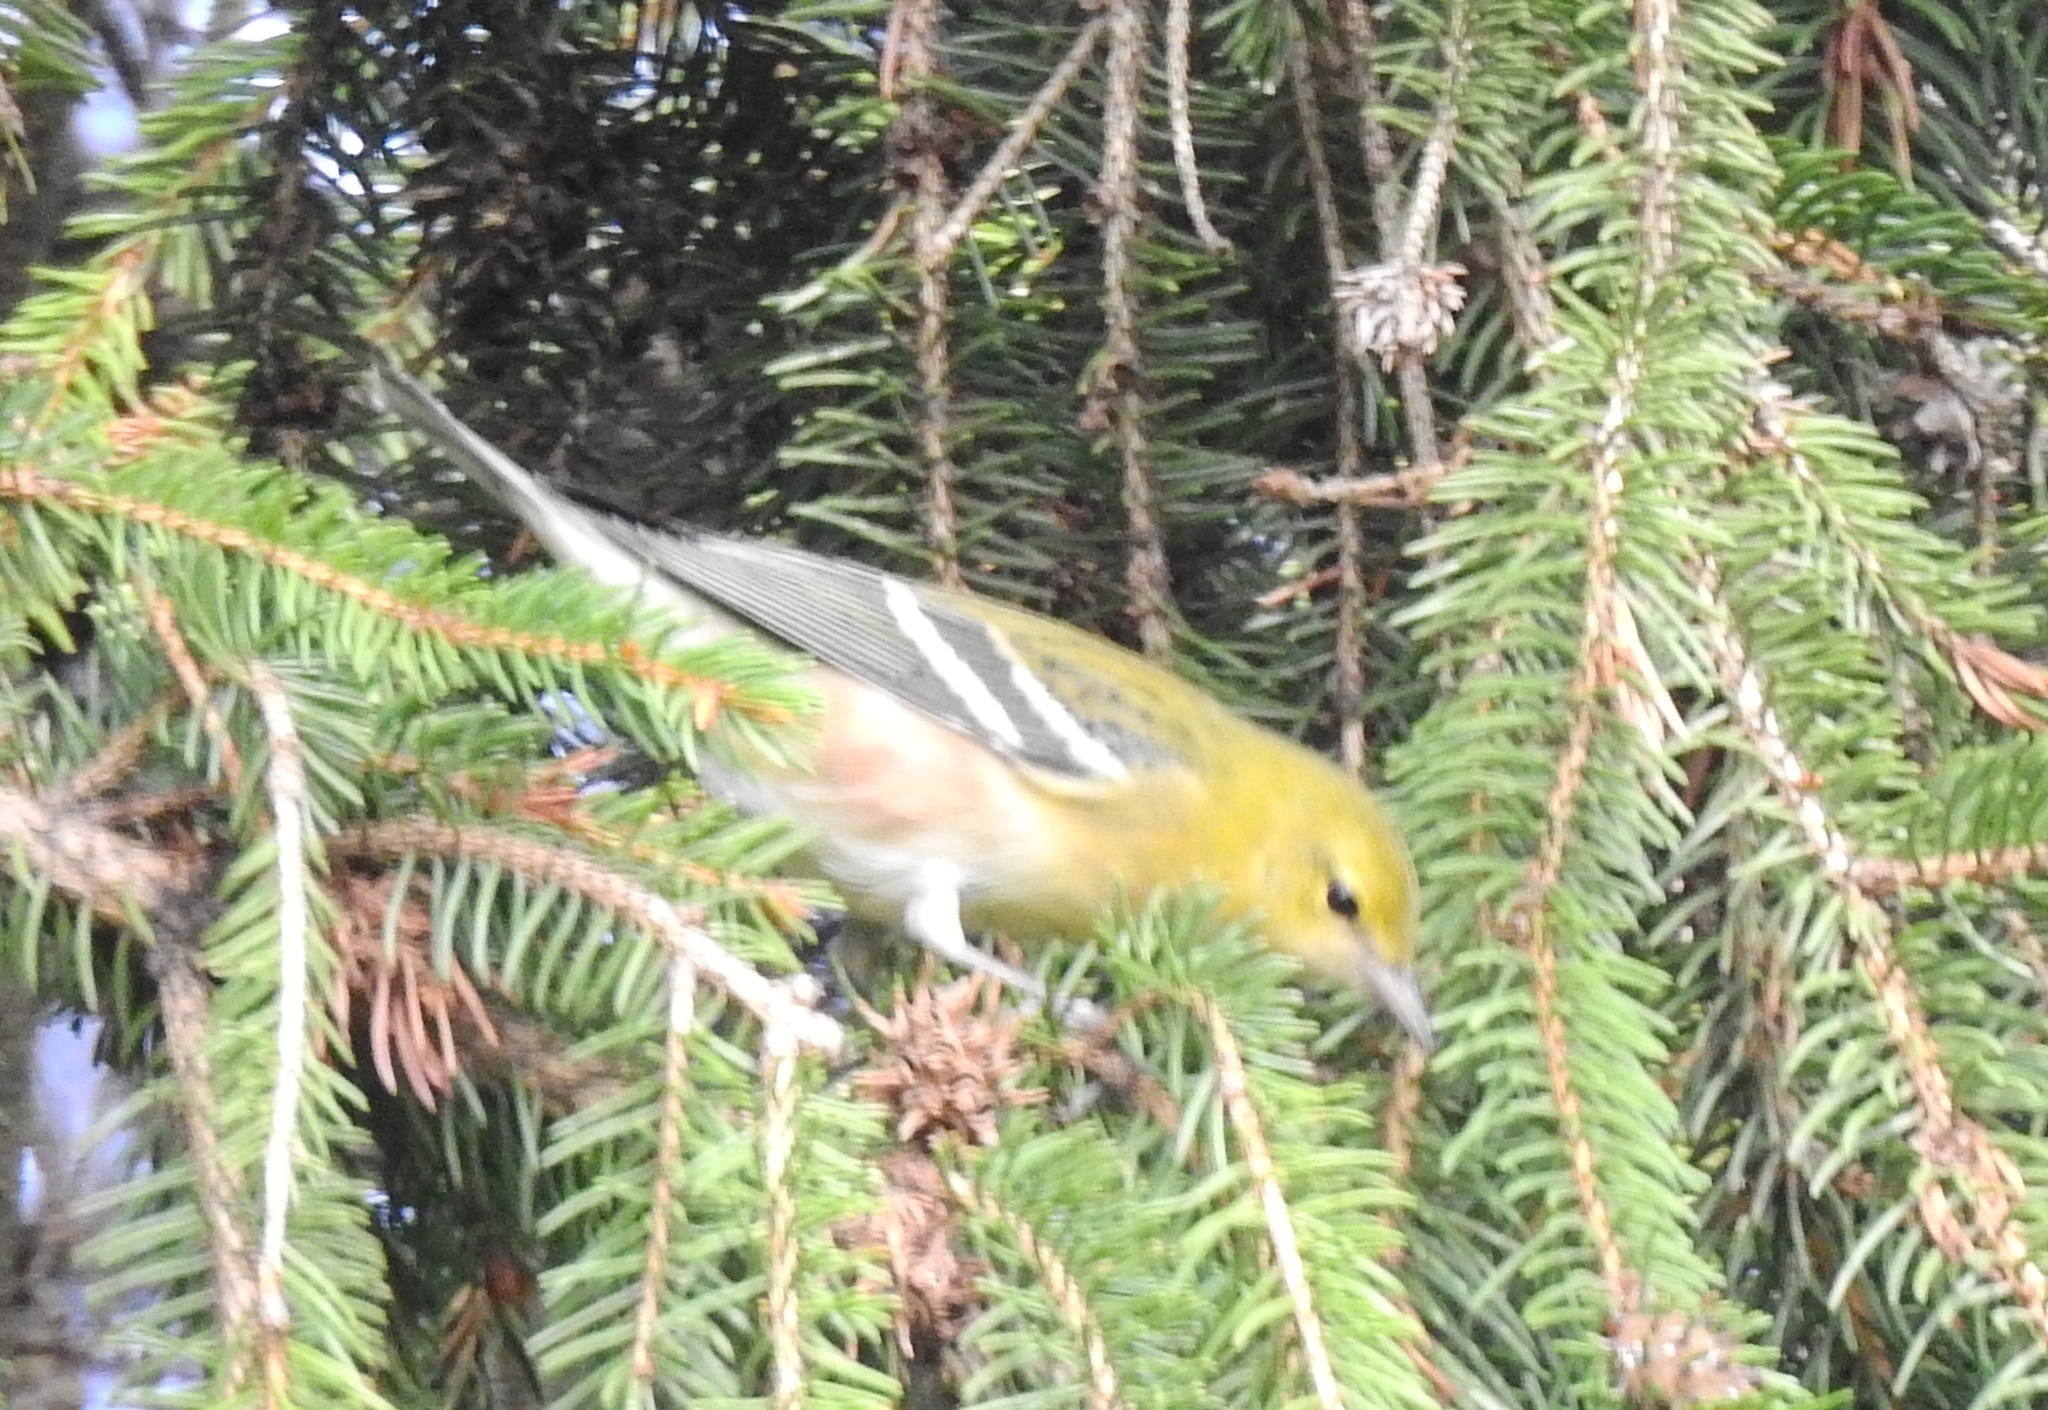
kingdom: Animalia
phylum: Chordata
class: Aves
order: Passeriformes
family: Parulidae
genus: Setophaga
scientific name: Setophaga castanea
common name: Bay-breasted warbler
